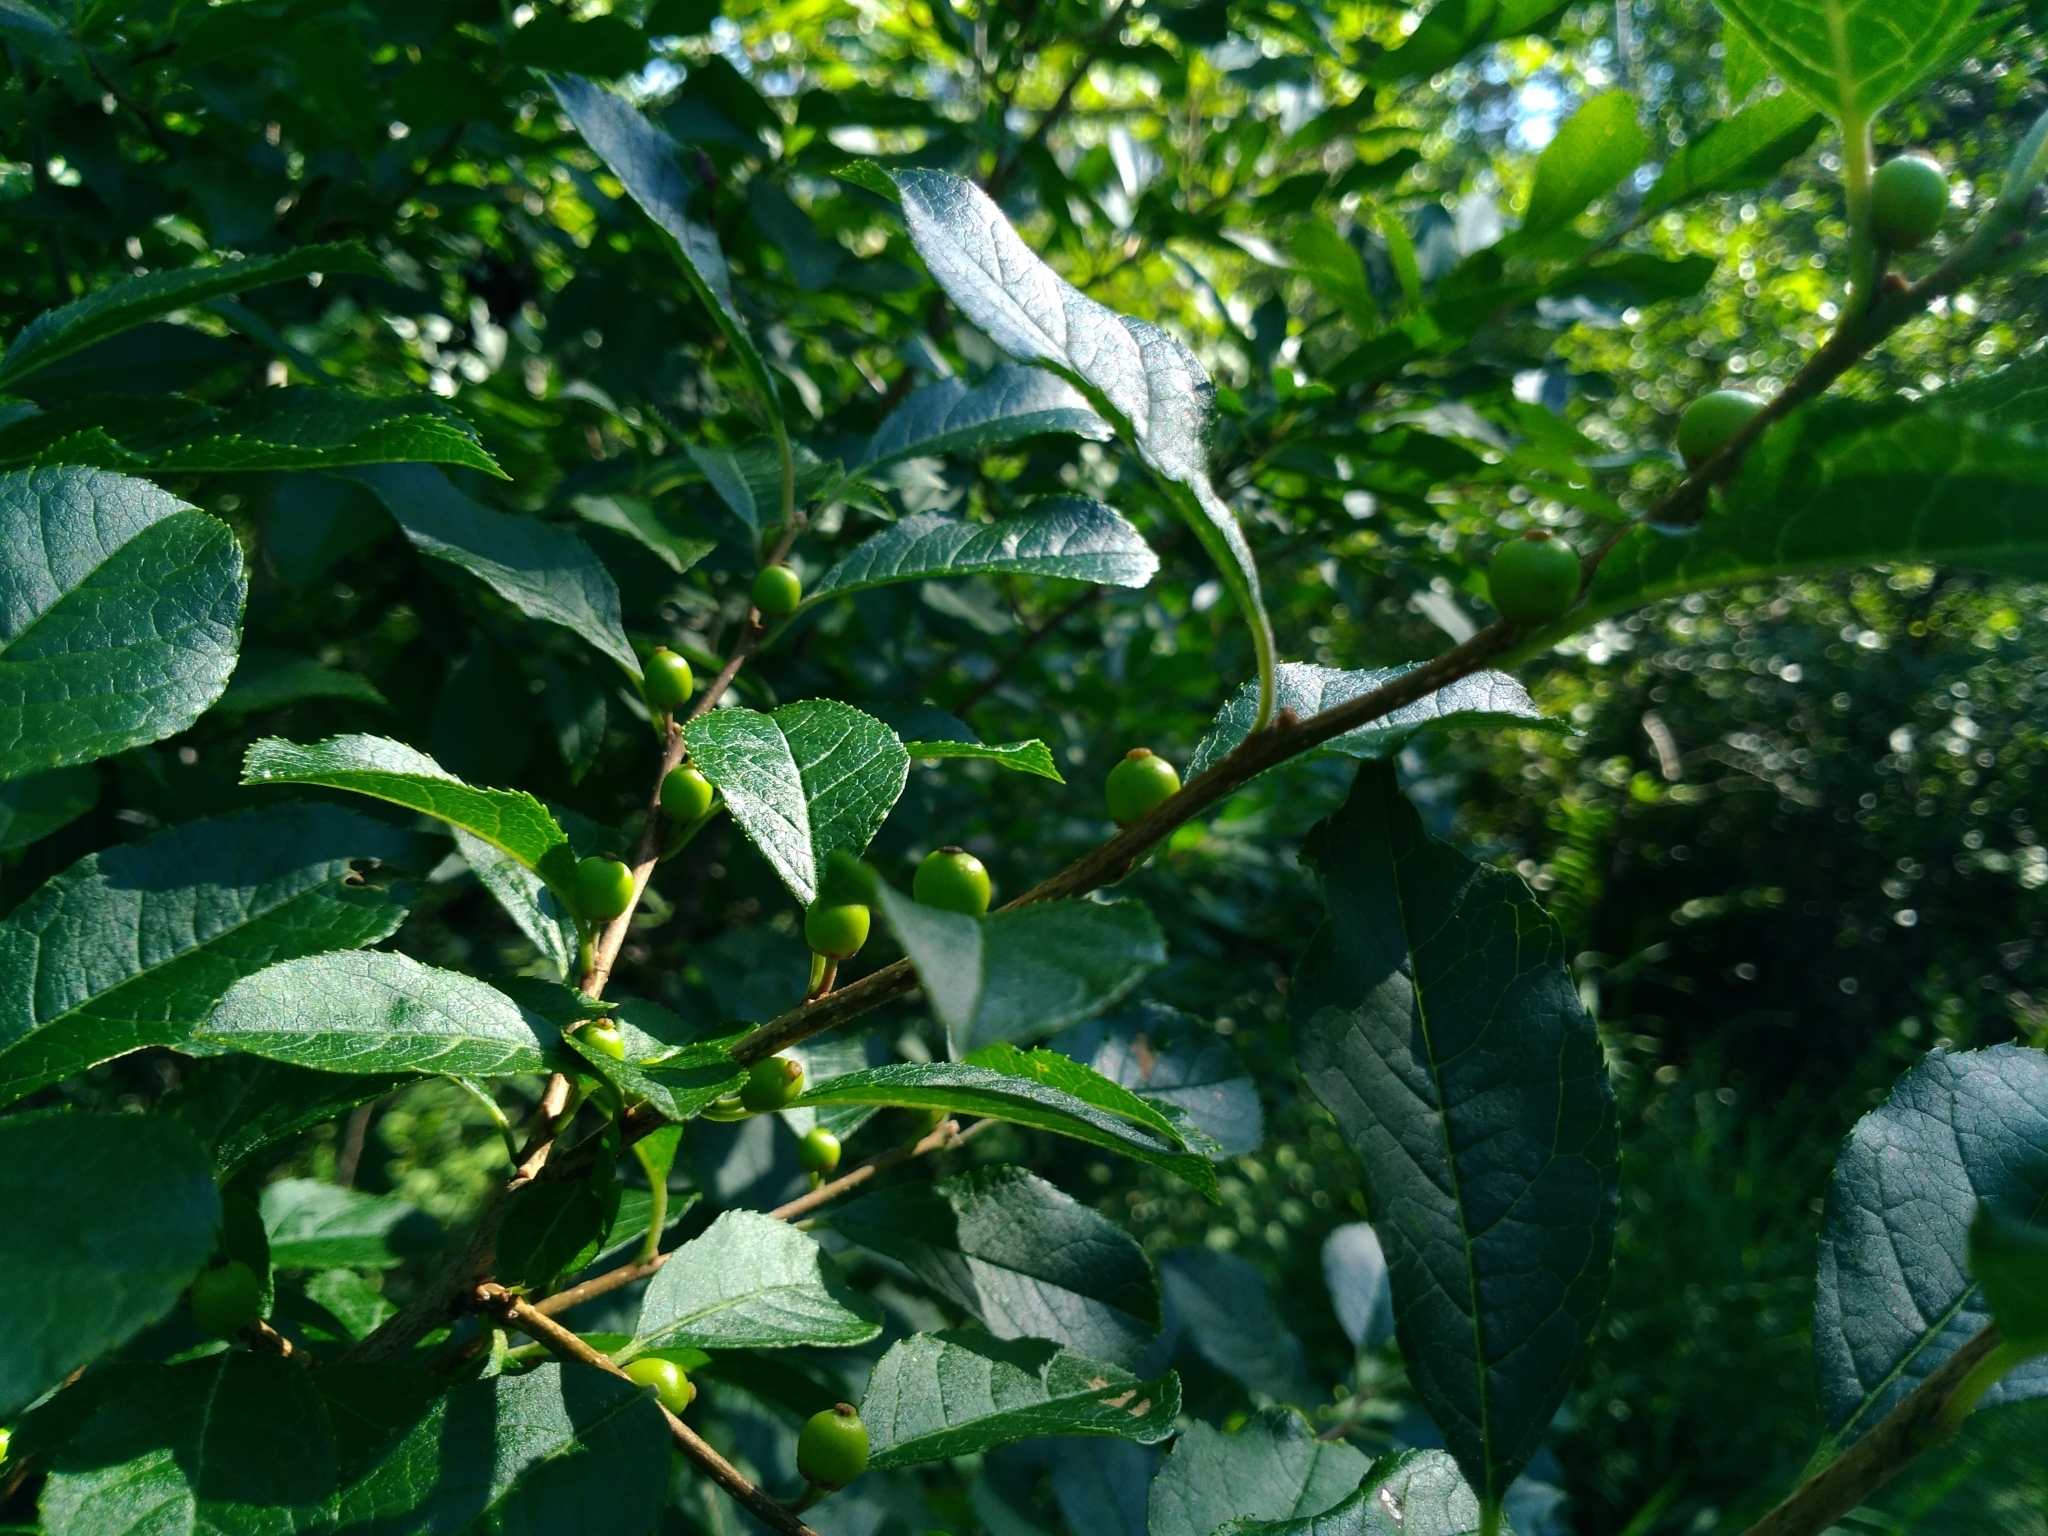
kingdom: Plantae
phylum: Tracheophyta
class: Magnoliopsida
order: Aquifoliales
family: Aquifoliaceae
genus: Ilex
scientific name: Ilex verticillata
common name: Virginia winterberry
